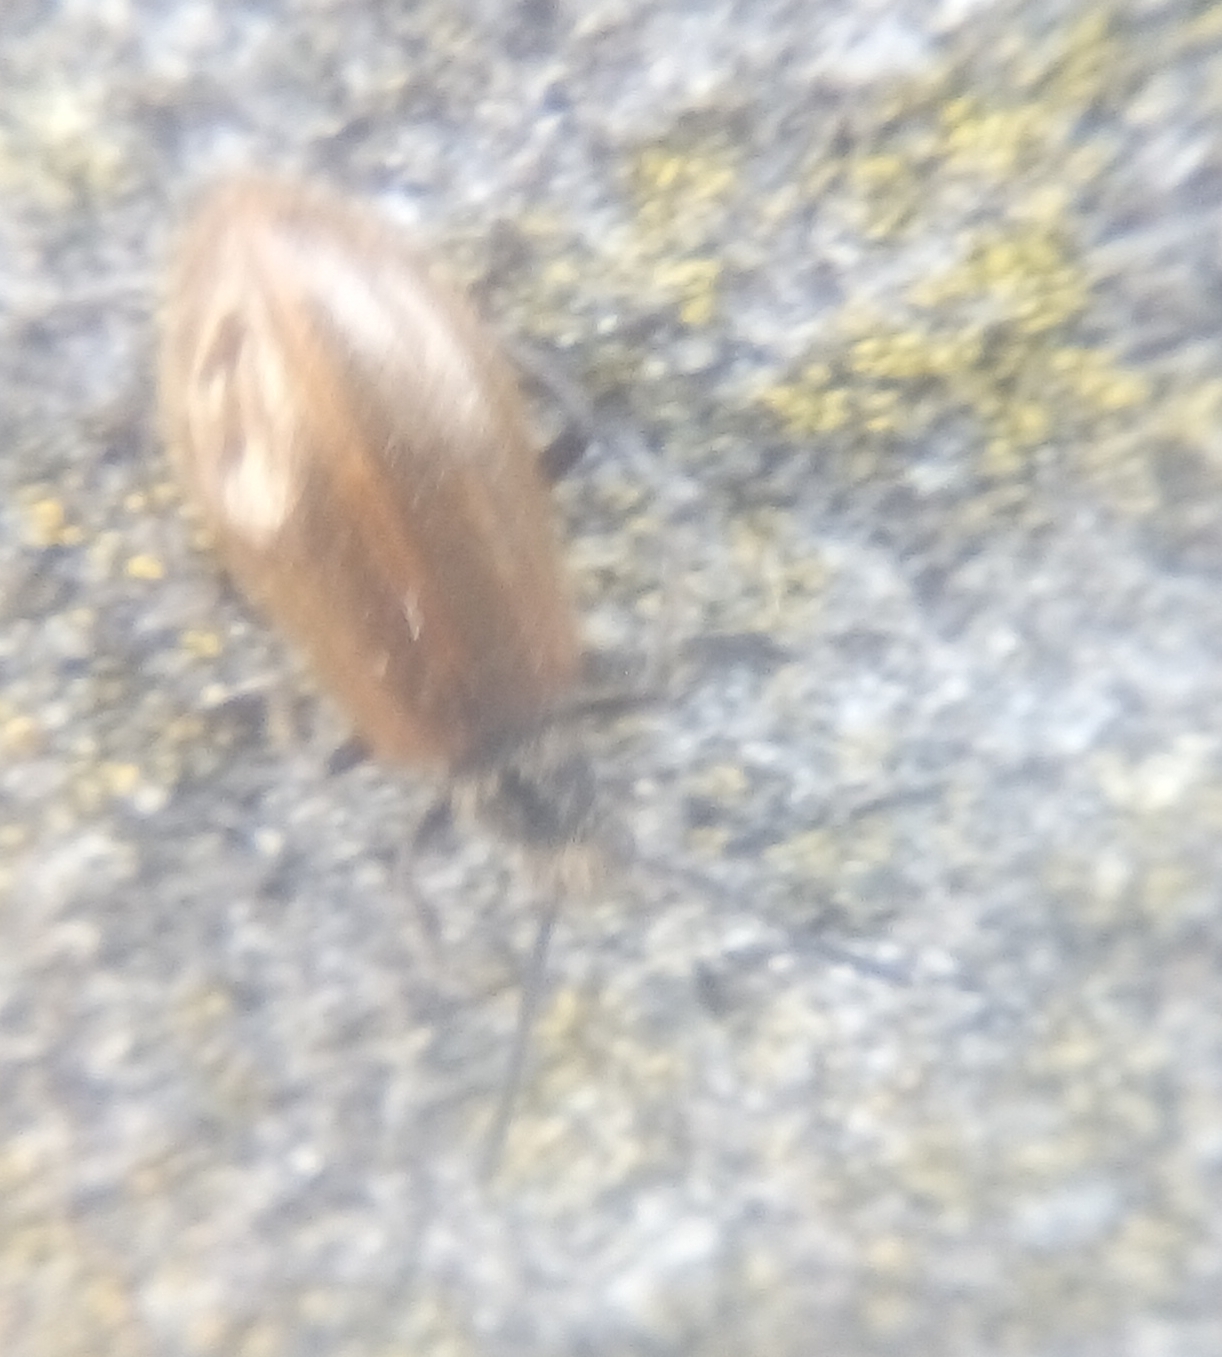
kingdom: Animalia
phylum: Arthropoda
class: Insecta
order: Coleoptera
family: Tenebrionidae
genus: Lagria
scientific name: Lagria hirta
